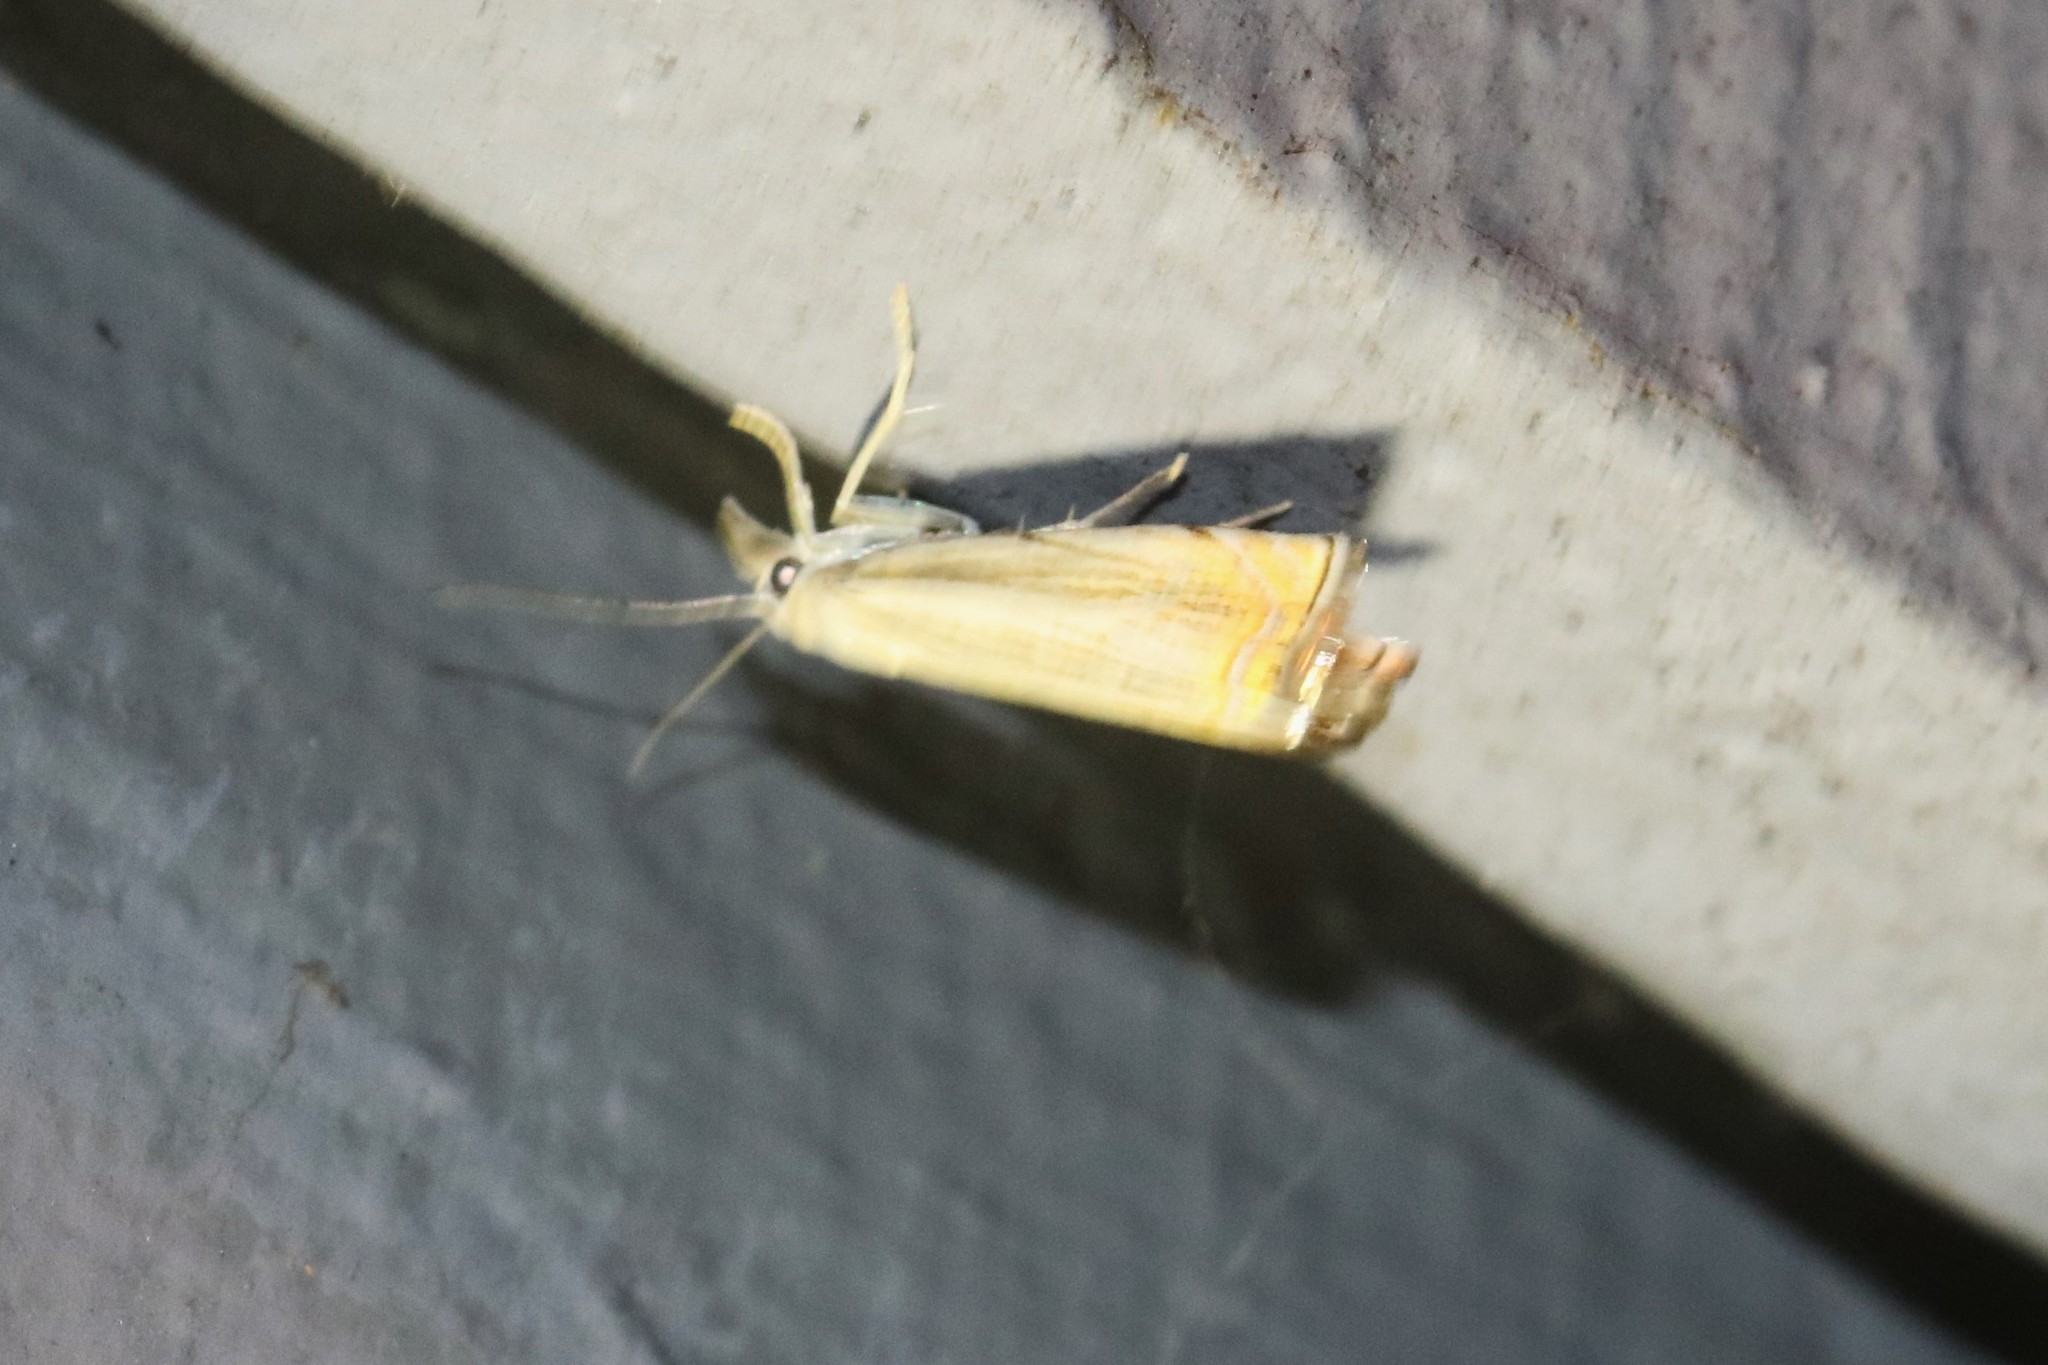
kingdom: Animalia
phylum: Arthropoda
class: Insecta
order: Lepidoptera
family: Crambidae
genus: Chrysoteuchia
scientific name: Chrysoteuchia topiarius
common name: Topiary grass-veneer
